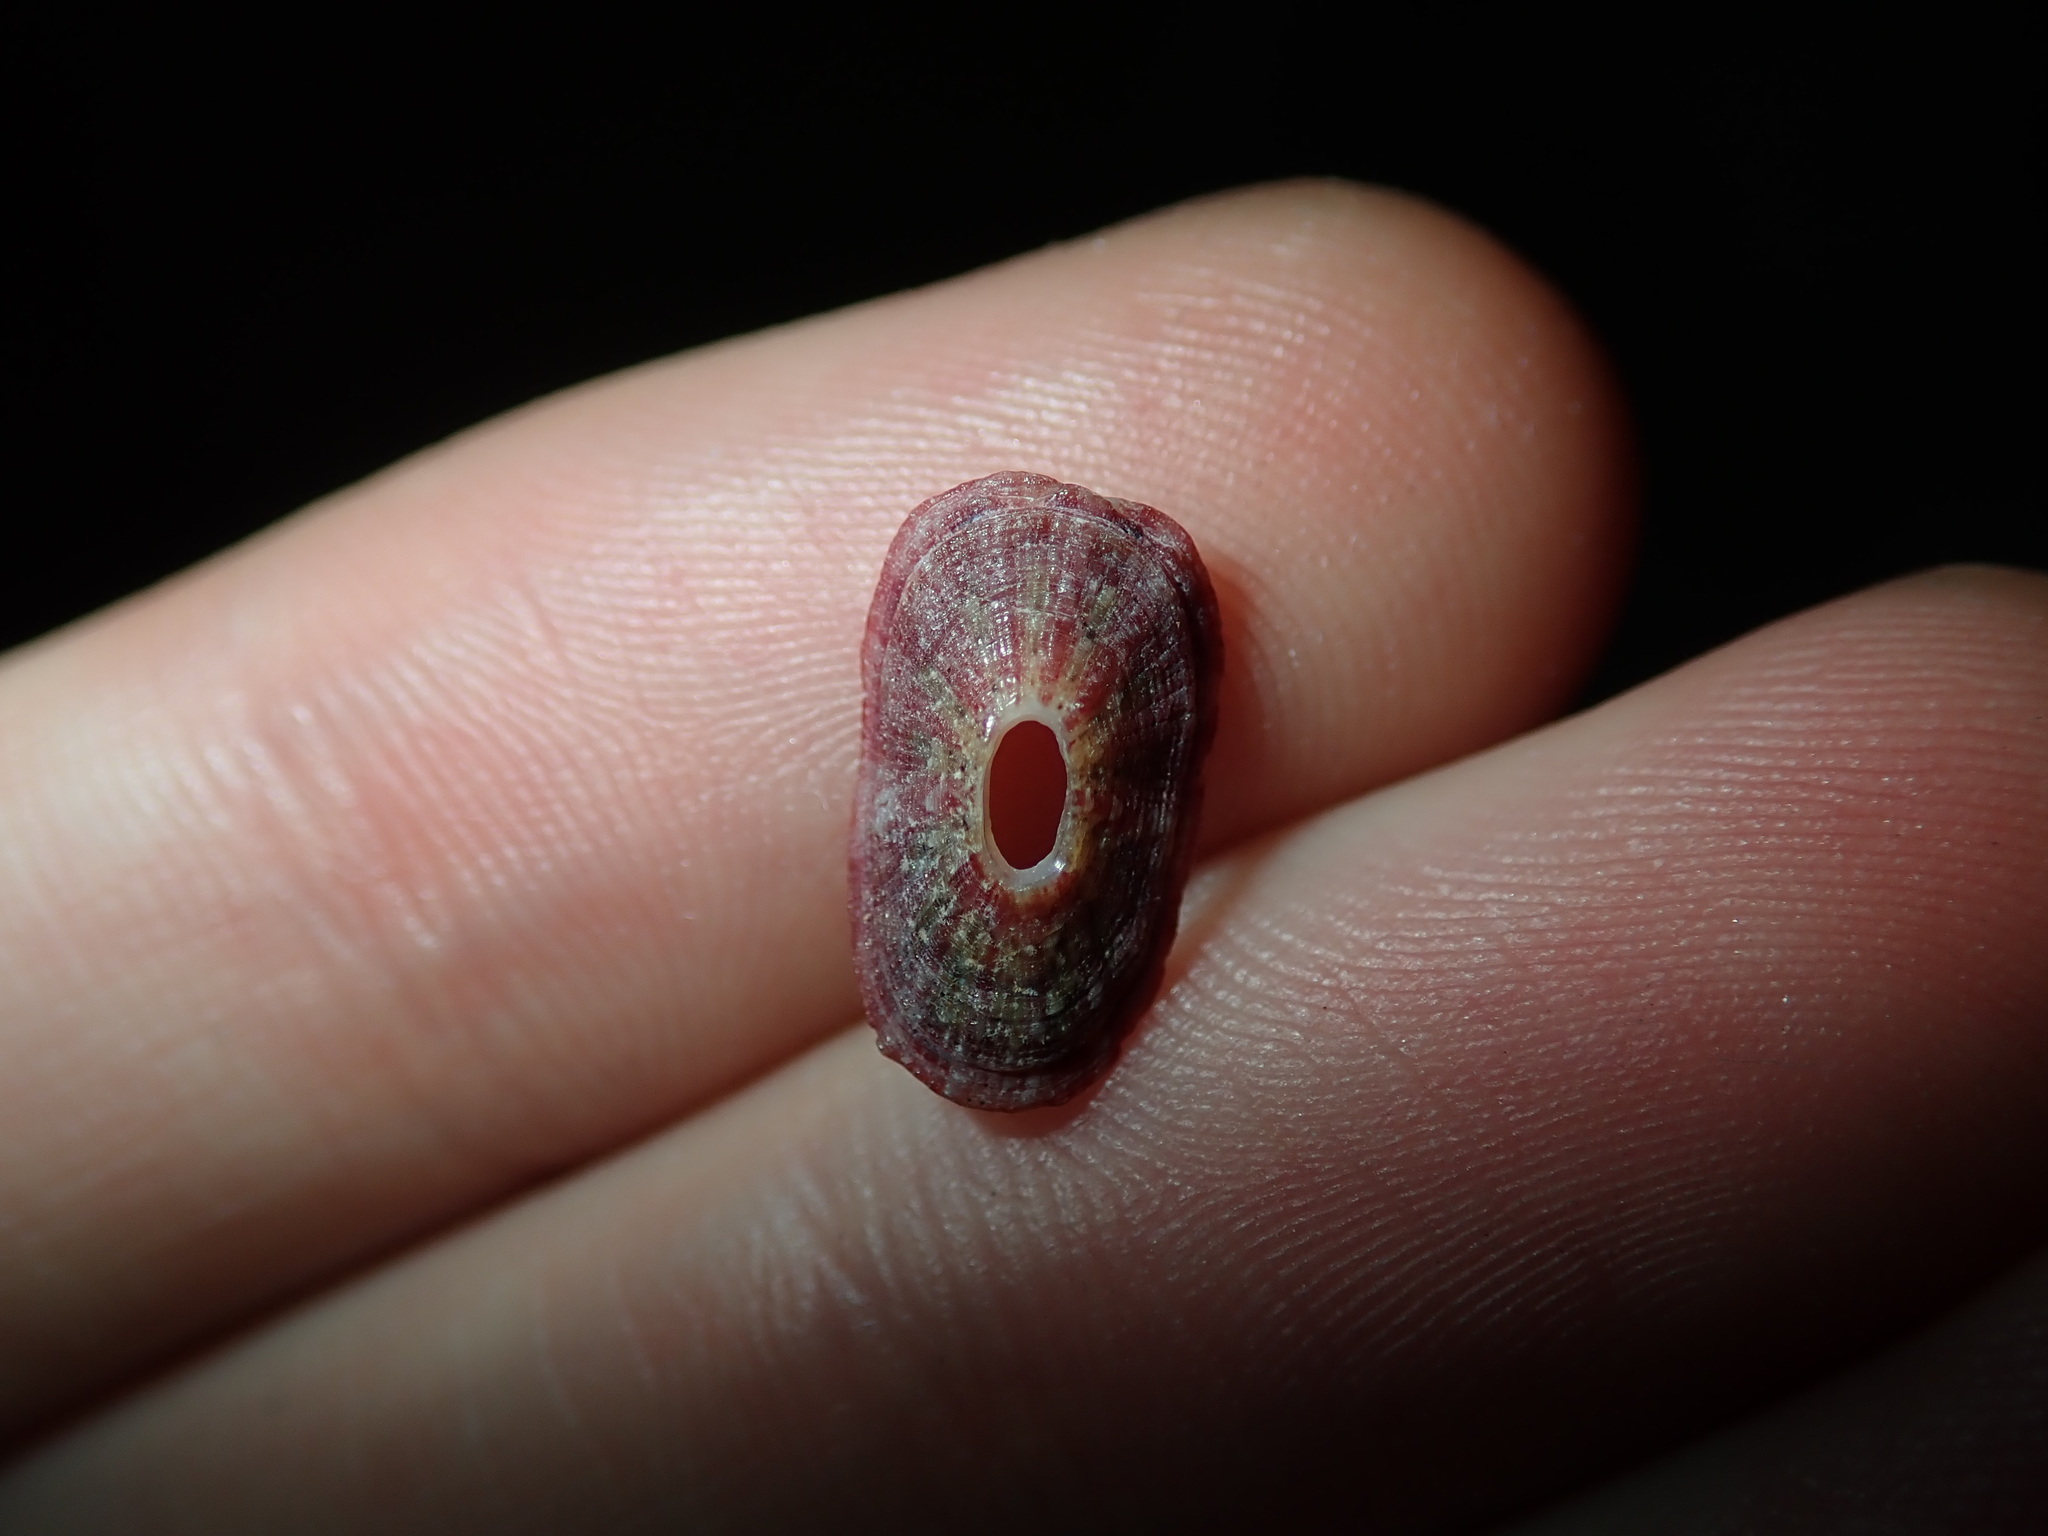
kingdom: Animalia
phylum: Mollusca
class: Gastropoda
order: Lepetellida
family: Fissurellidae
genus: Amblychilepas
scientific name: Amblychilepas nigrita
